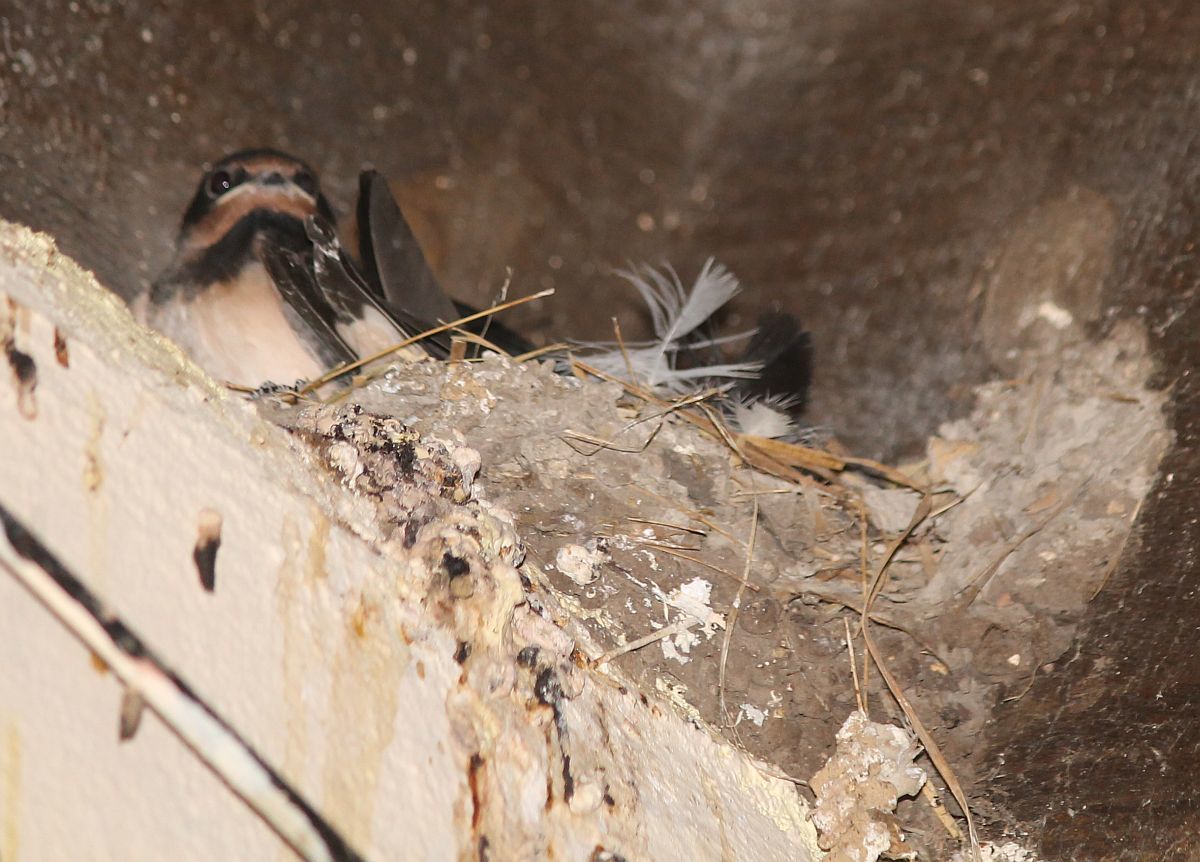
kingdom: Animalia
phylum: Chordata
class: Aves
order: Passeriformes
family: Hirundinidae
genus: Hirundo
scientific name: Hirundo rustica
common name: Barn swallow
